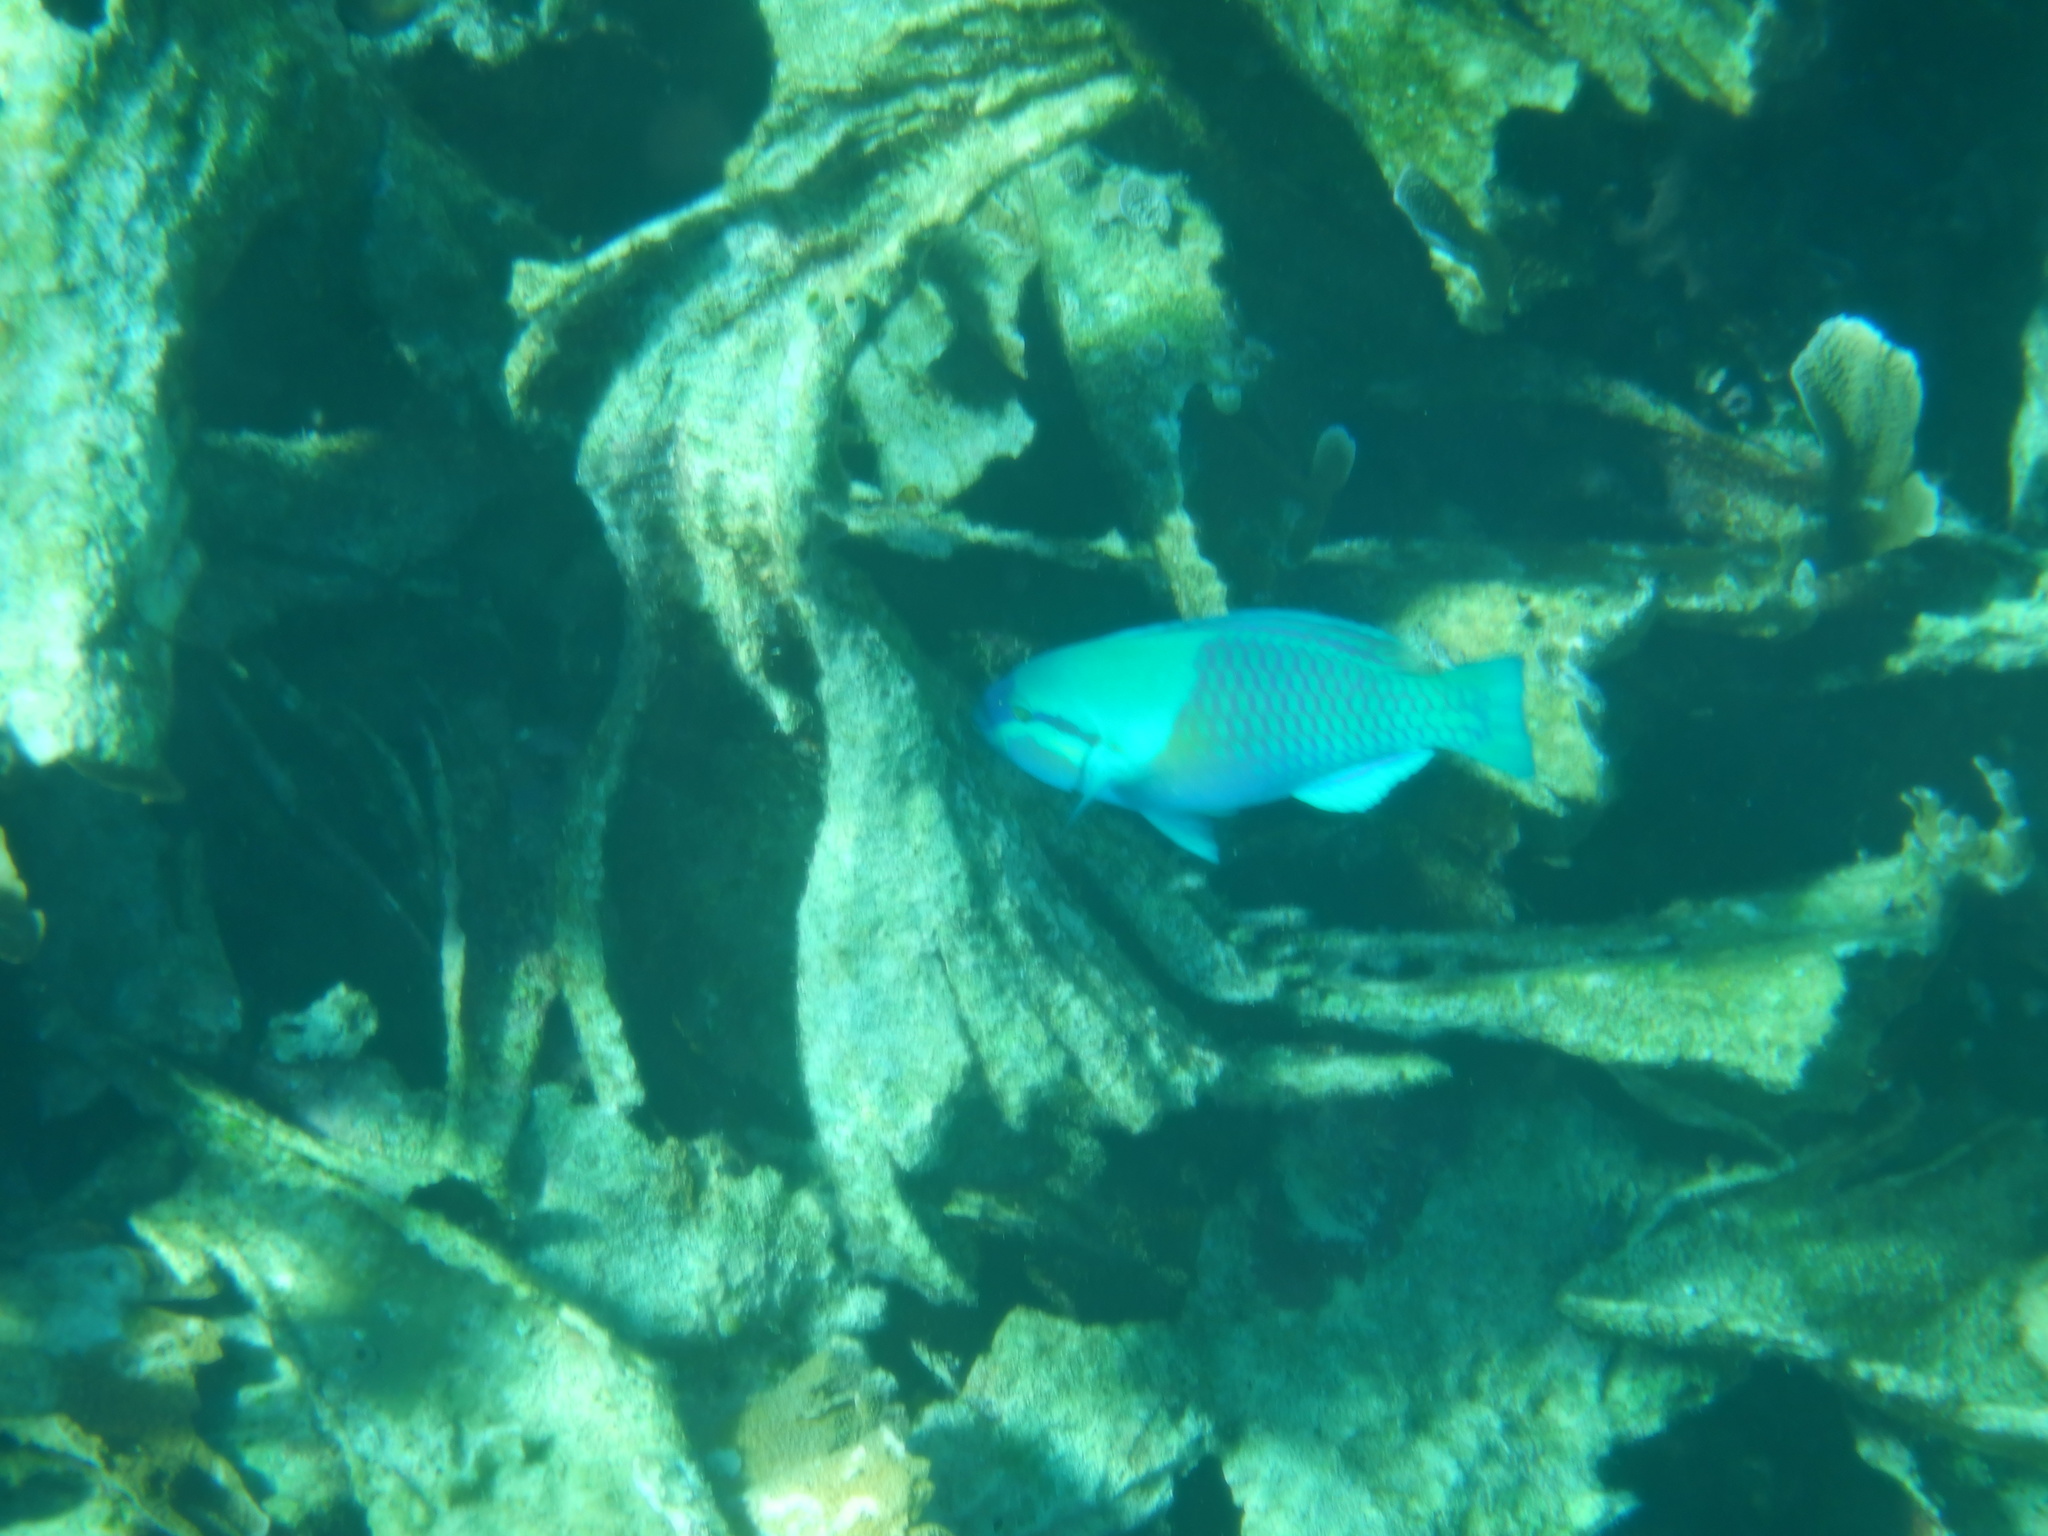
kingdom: Animalia
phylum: Chordata
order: Perciformes
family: Scaridae
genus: Scarus
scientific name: Scarus dimidiatus
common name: Yellowbarred parrotfish
